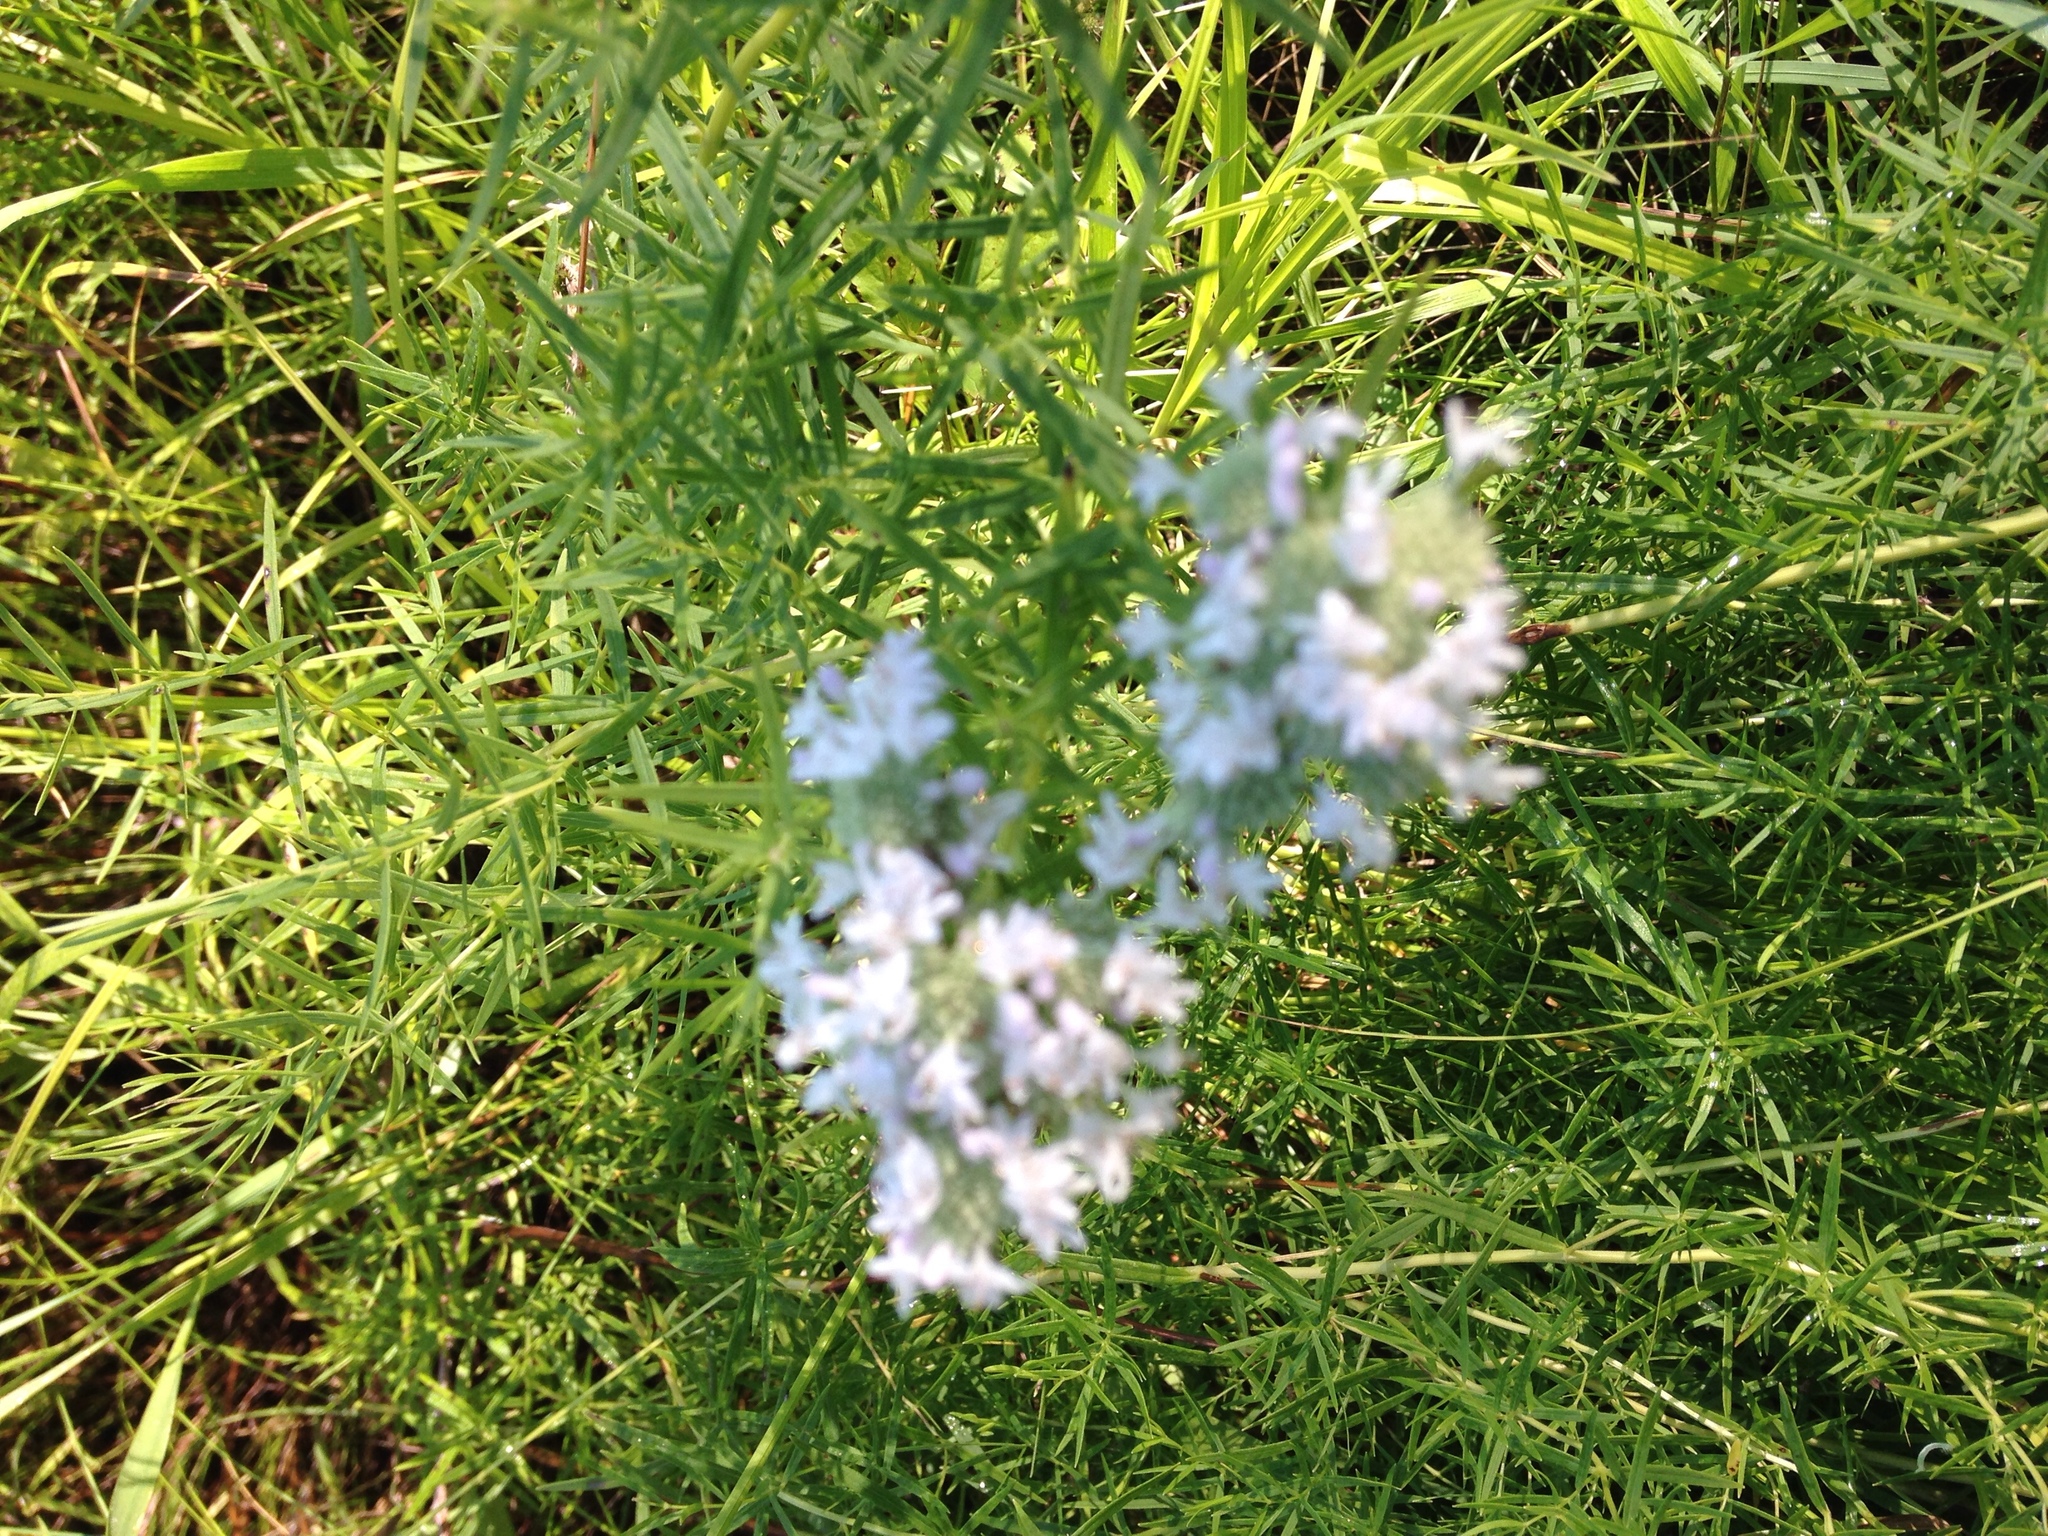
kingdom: Plantae
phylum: Tracheophyta
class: Magnoliopsida
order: Lamiales
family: Lamiaceae
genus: Pycnanthemum
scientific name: Pycnanthemum tenuifolium
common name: Narrow-leaf mountain-mint
